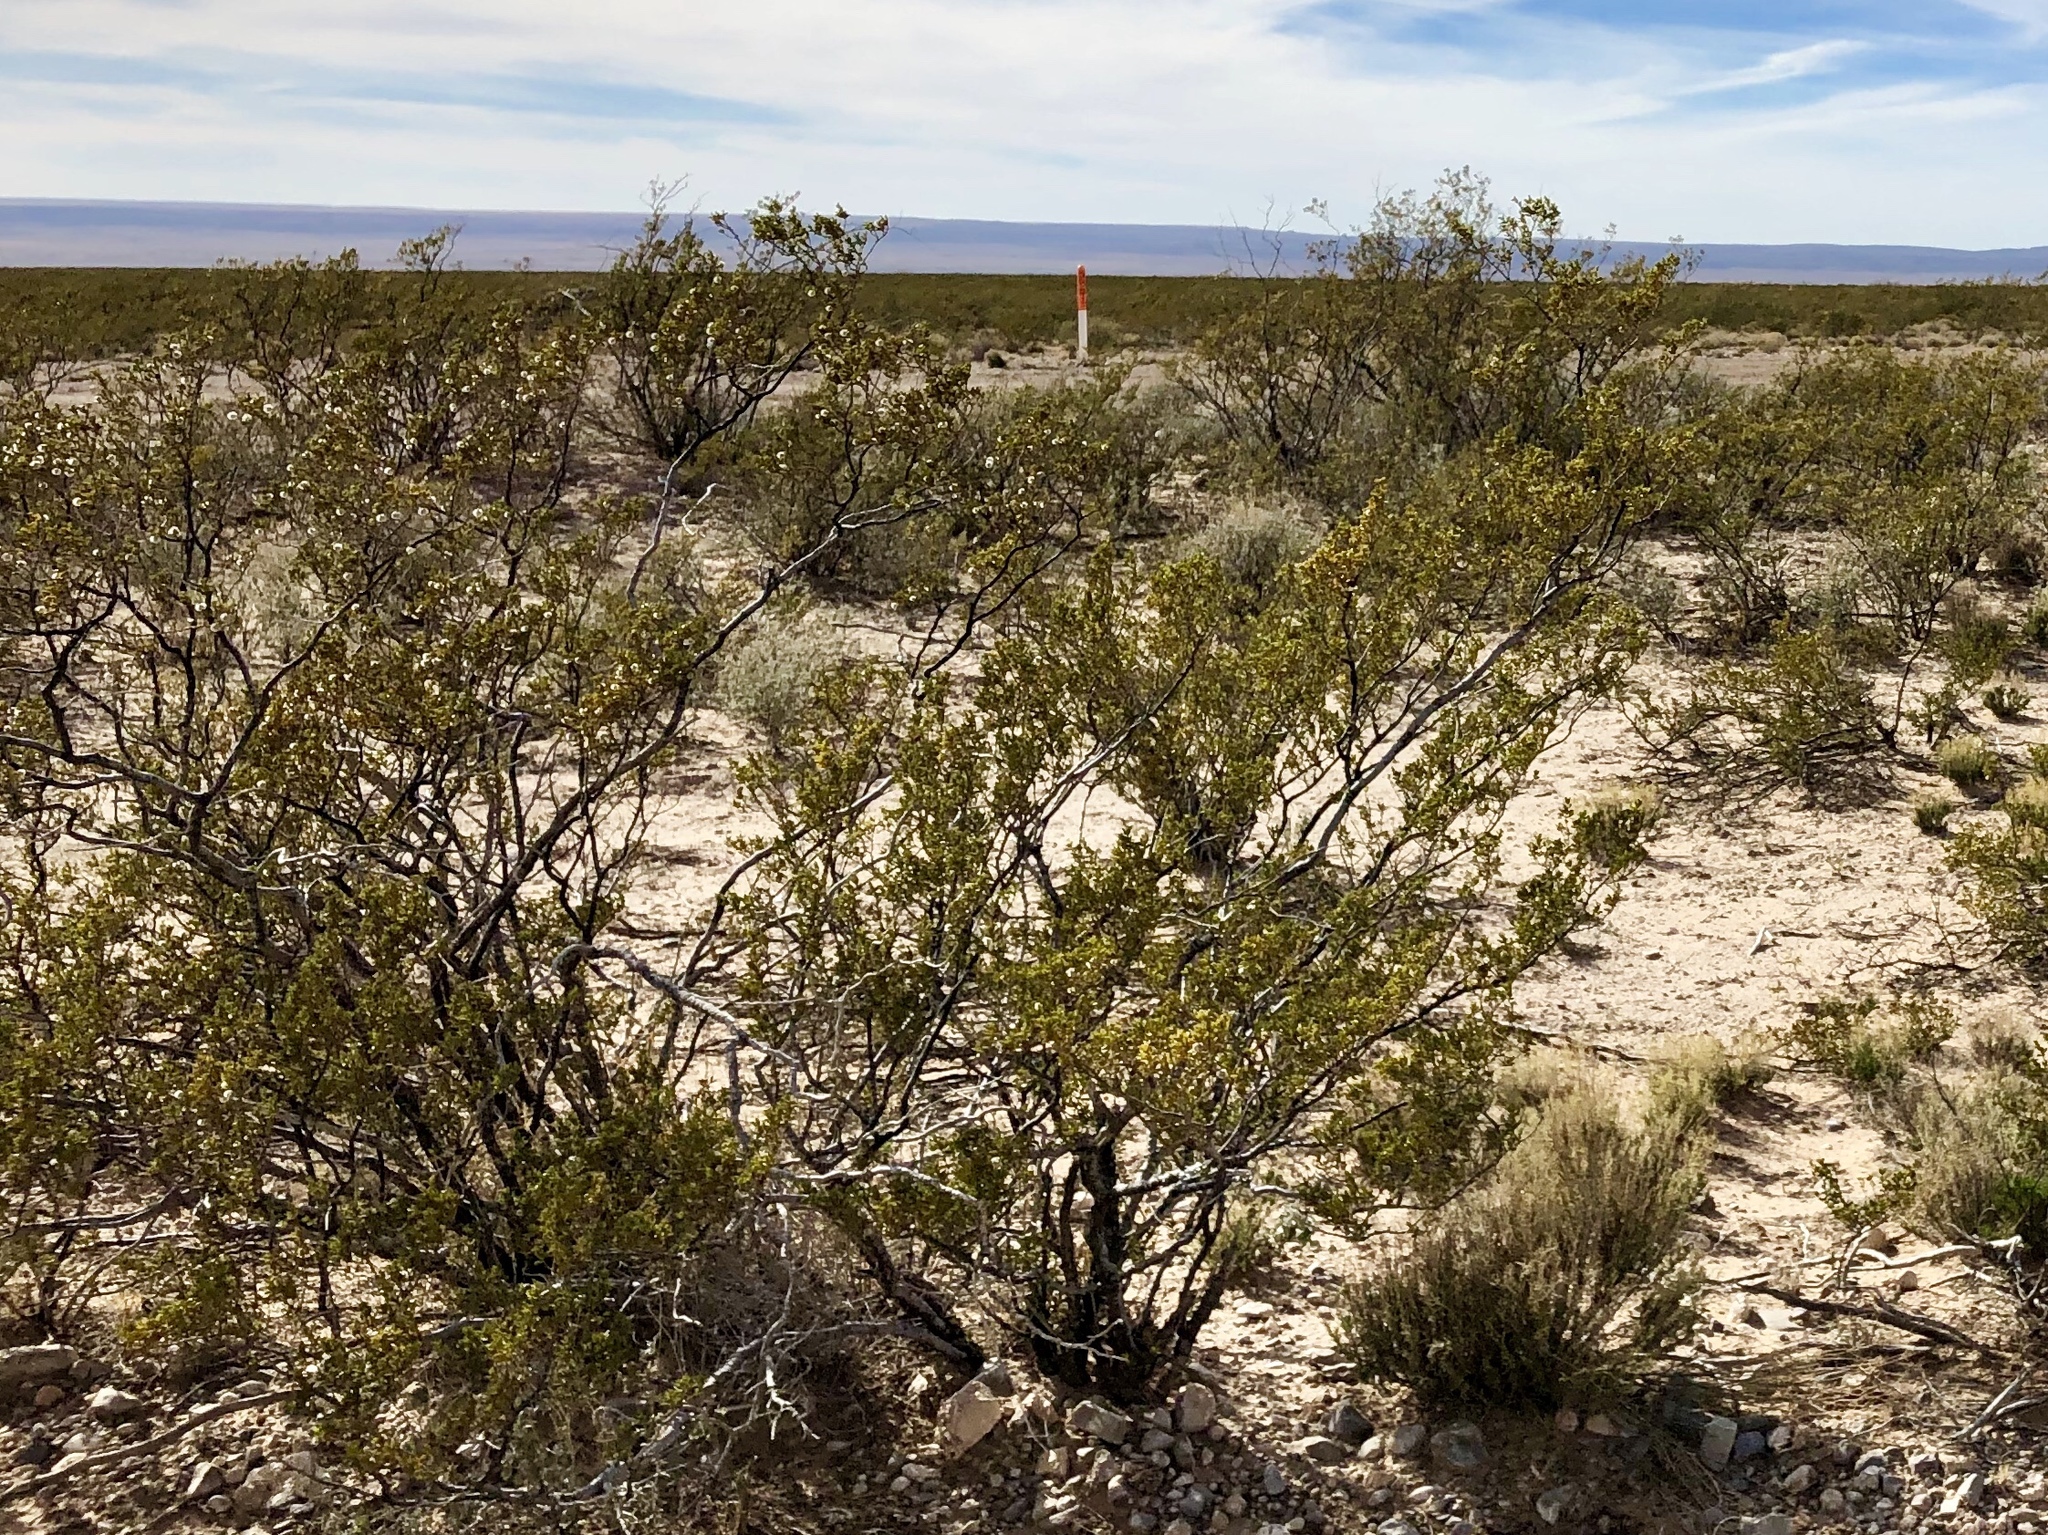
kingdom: Plantae
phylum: Tracheophyta
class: Magnoliopsida
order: Zygophyllales
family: Zygophyllaceae
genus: Larrea
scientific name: Larrea tridentata
